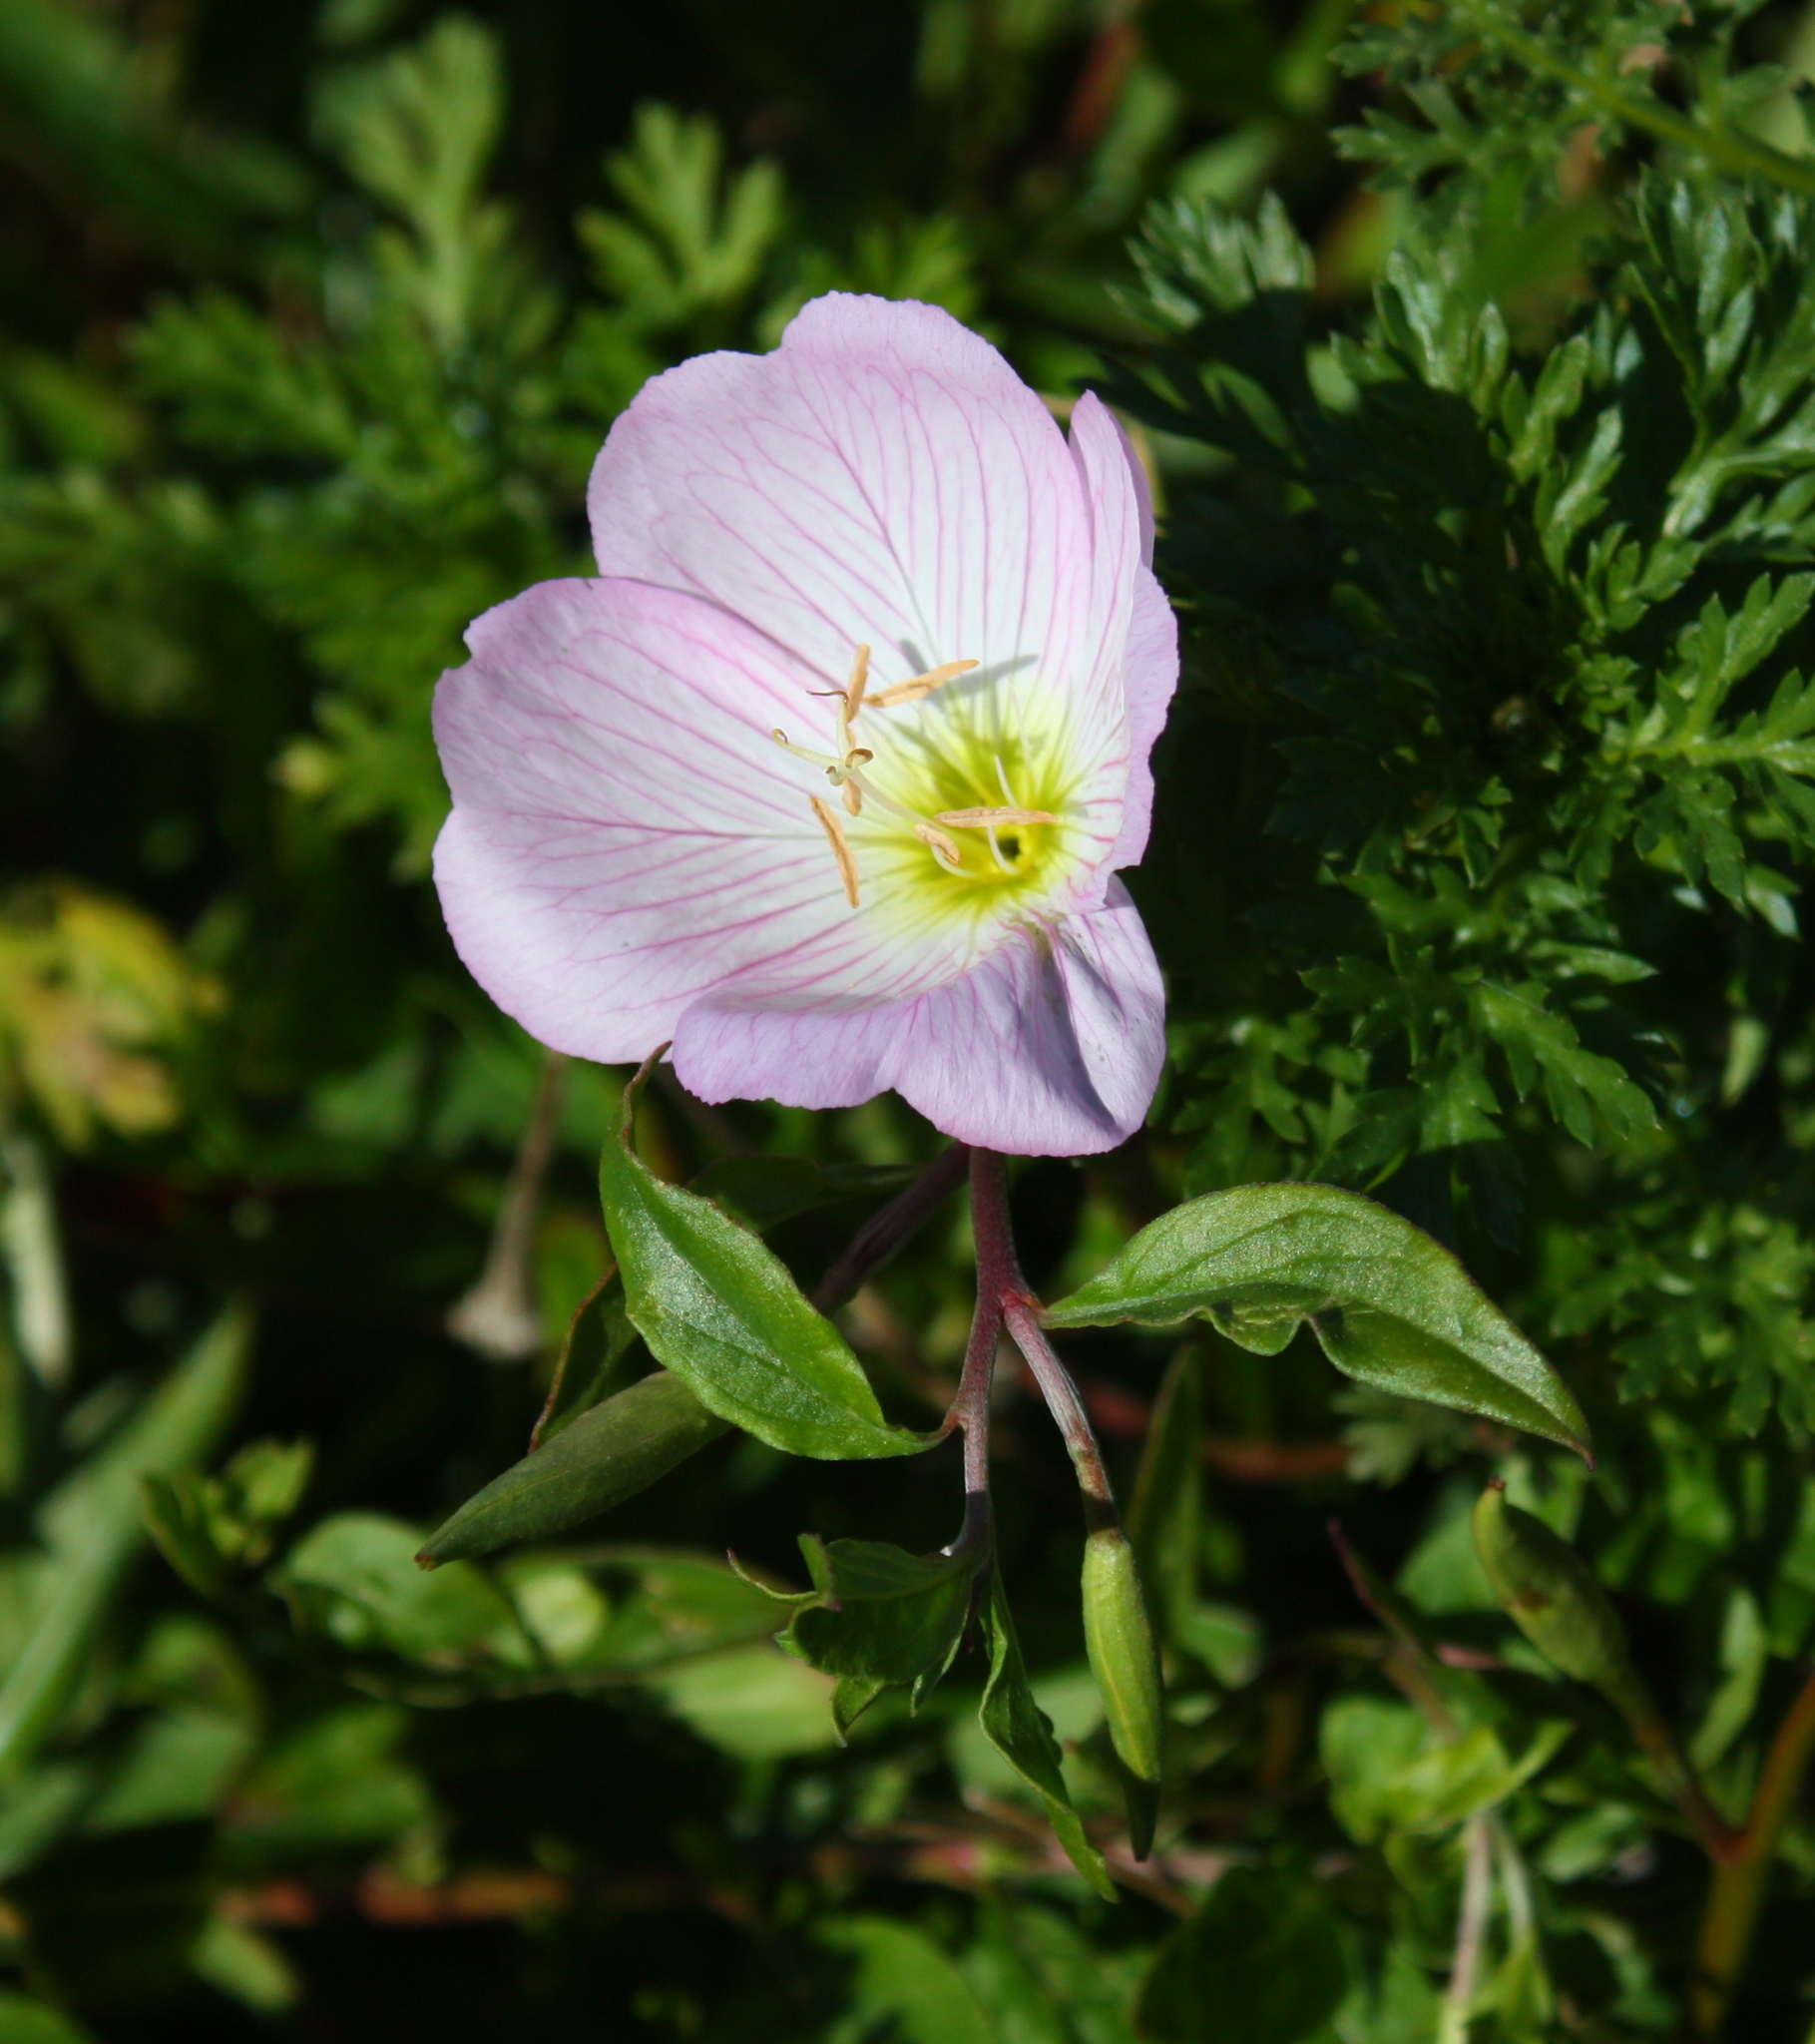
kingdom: Plantae
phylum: Tracheophyta
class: Magnoliopsida
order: Myrtales
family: Onagraceae
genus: Oenothera
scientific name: Oenothera speciosa
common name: White evening-primrose
